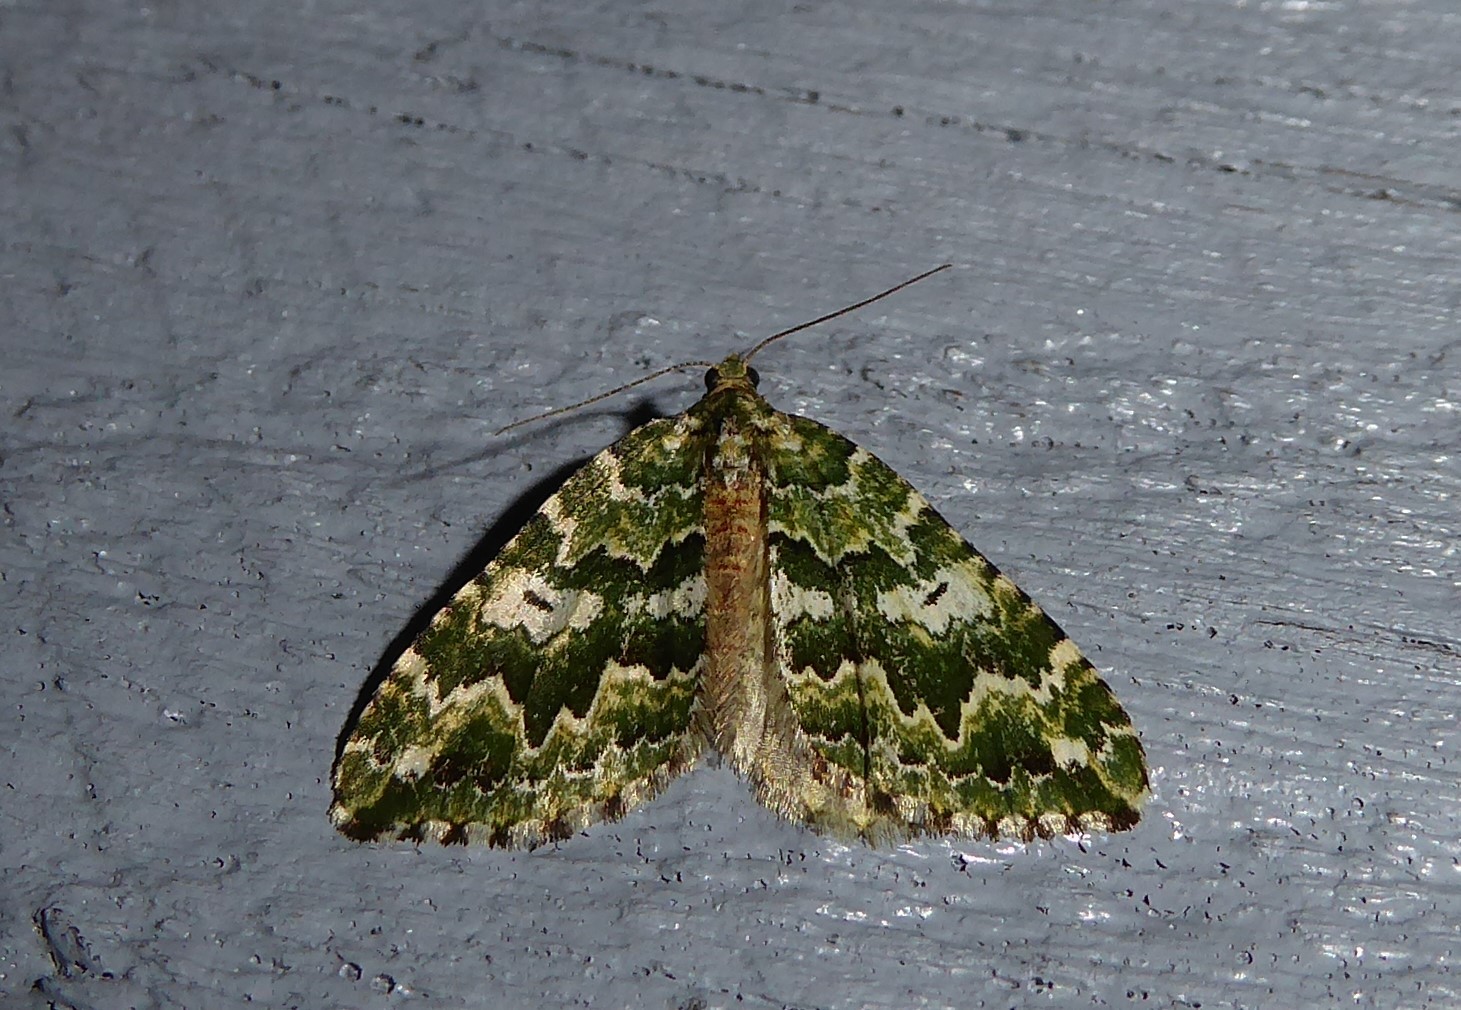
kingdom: Animalia
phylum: Arthropoda
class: Insecta
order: Lepidoptera
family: Geometridae
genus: Asaphodes
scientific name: Asaphodes beata
